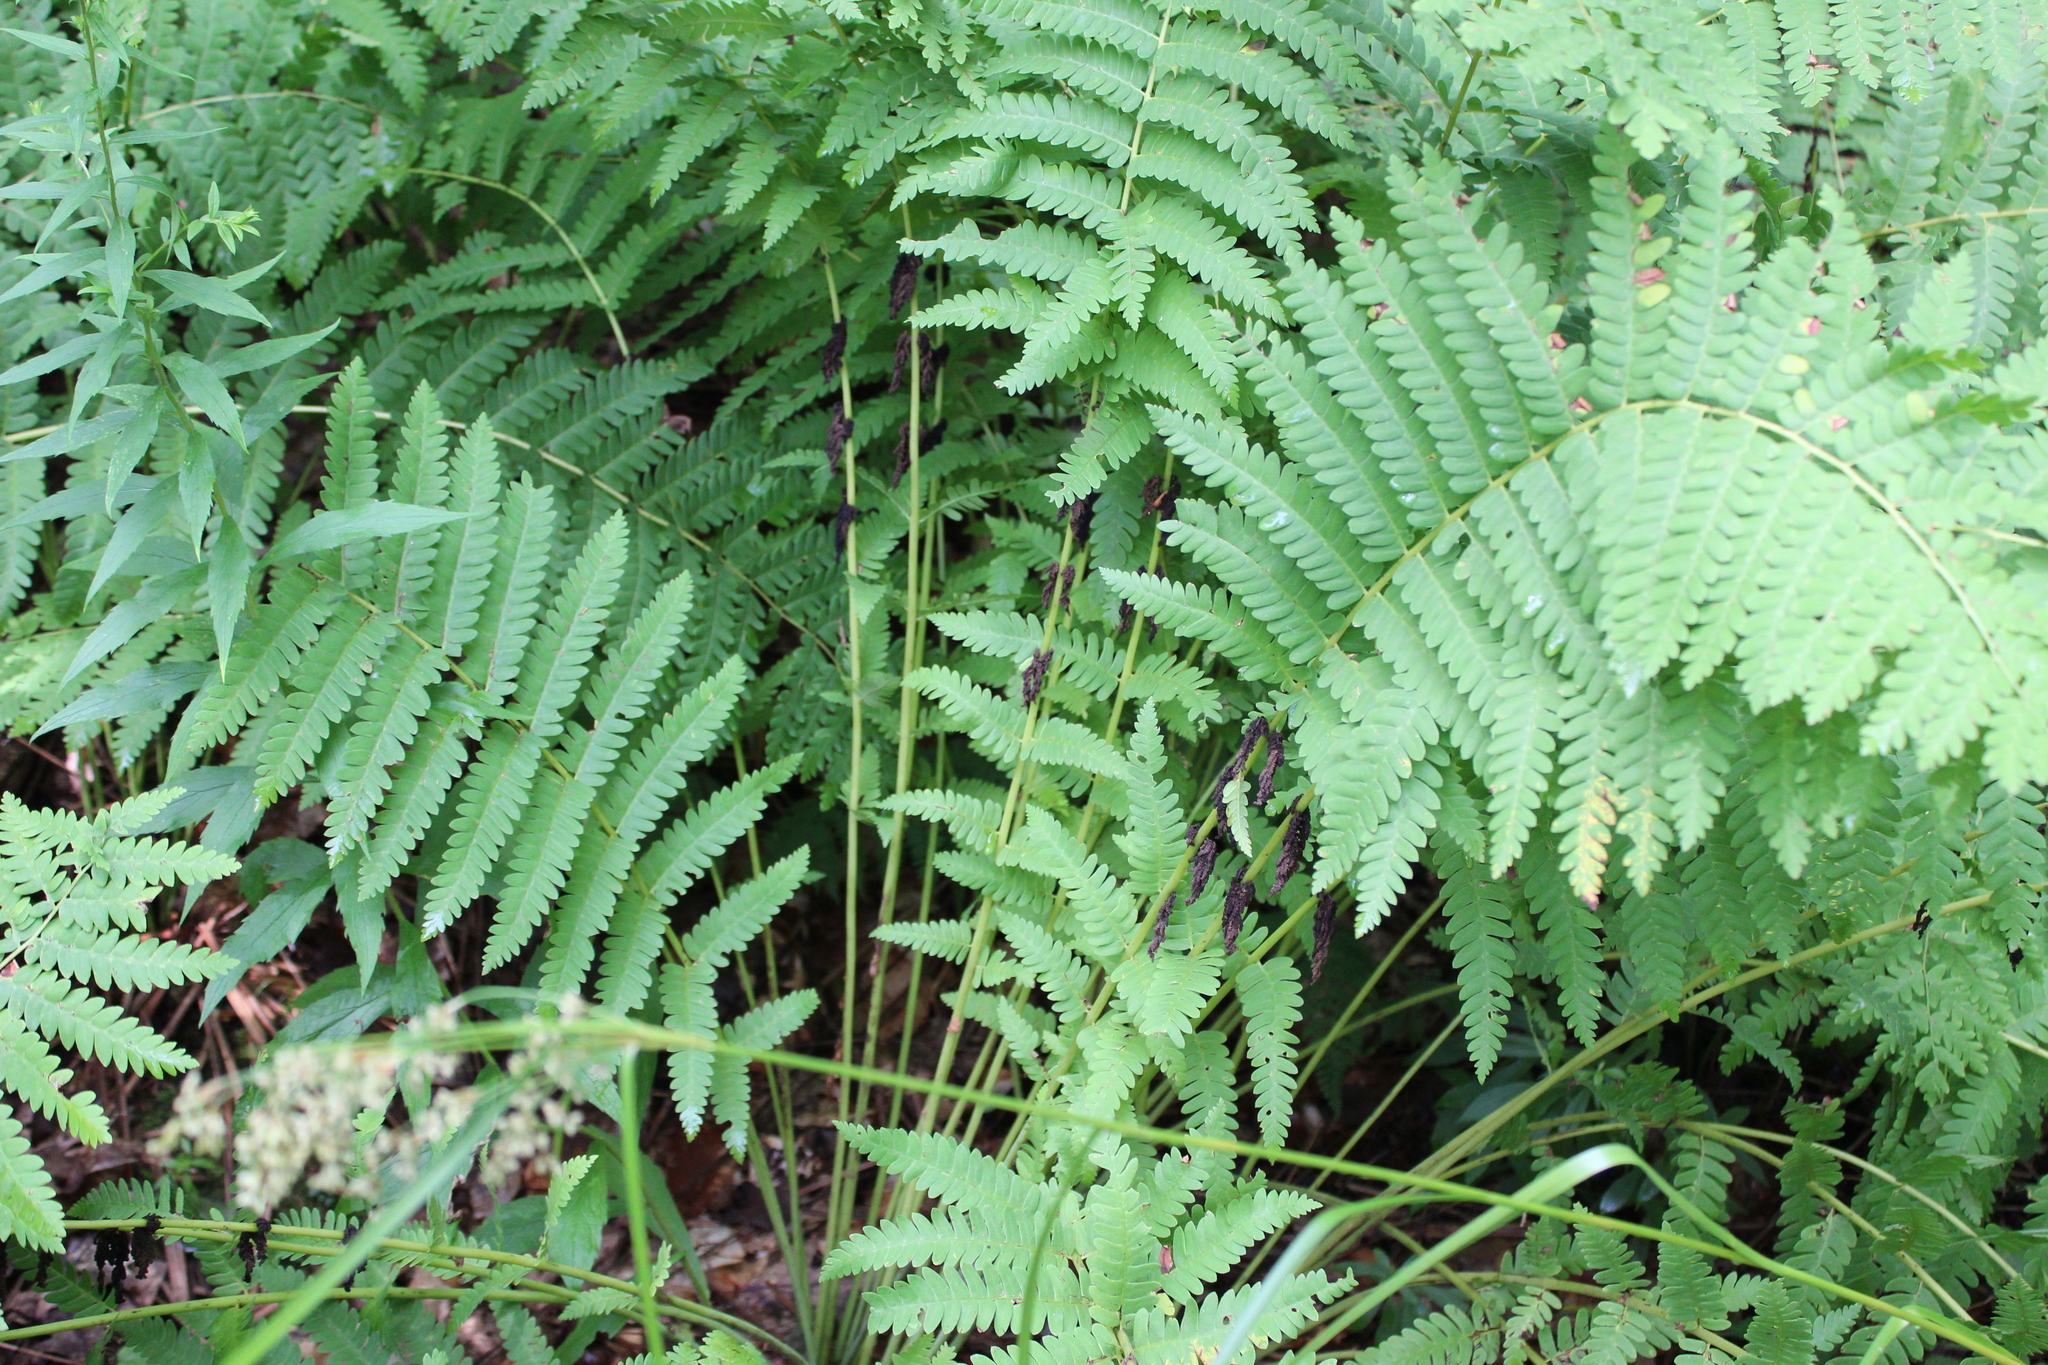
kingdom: Plantae
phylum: Tracheophyta
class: Polypodiopsida
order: Osmundales
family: Osmundaceae
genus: Claytosmunda
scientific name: Claytosmunda claytoniana
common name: Clayton's fern
